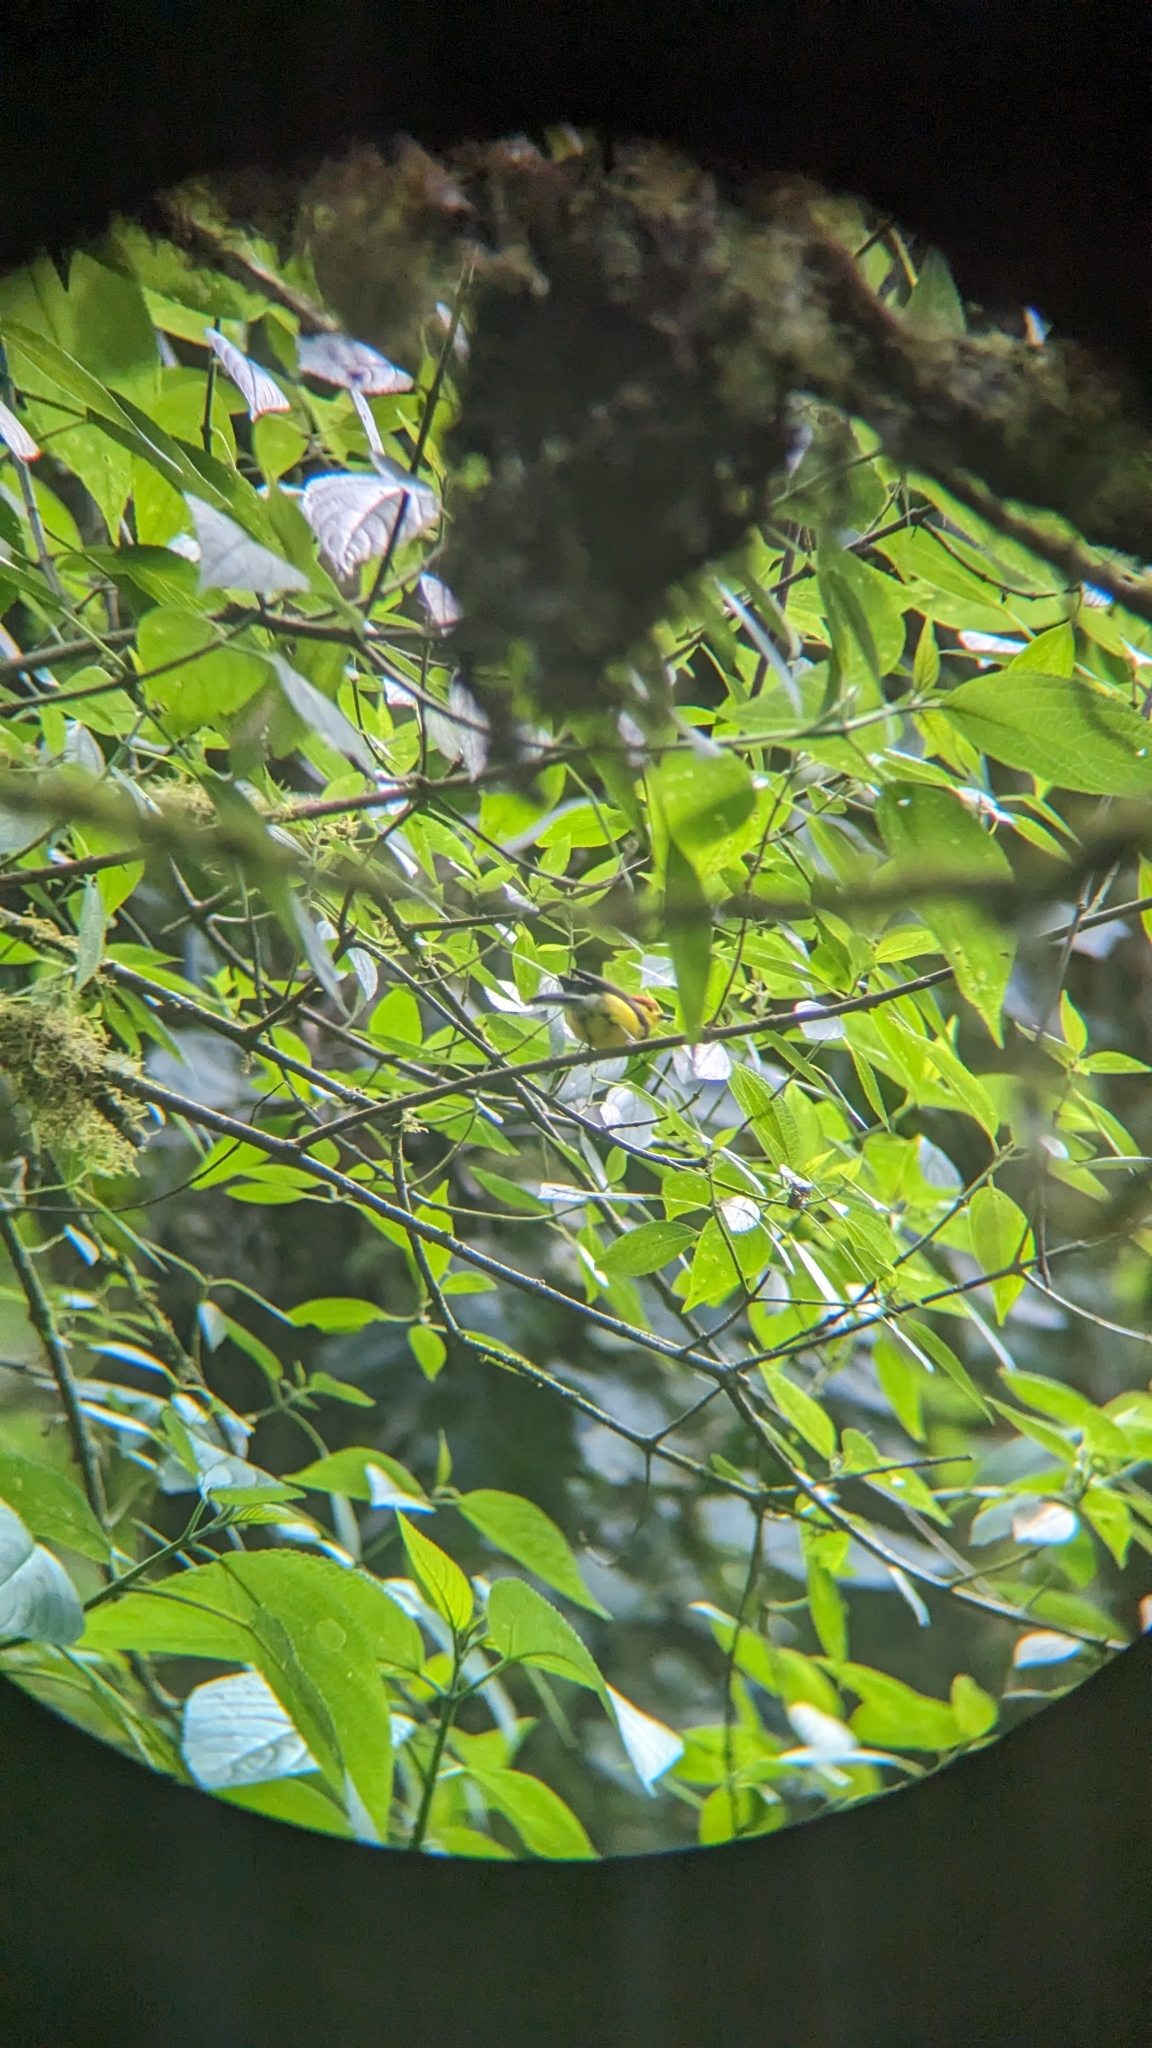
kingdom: Animalia
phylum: Chordata
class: Aves
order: Passeriformes
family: Parulidae
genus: Myioborus
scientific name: Myioborus torquatus
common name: Collared whitestart
